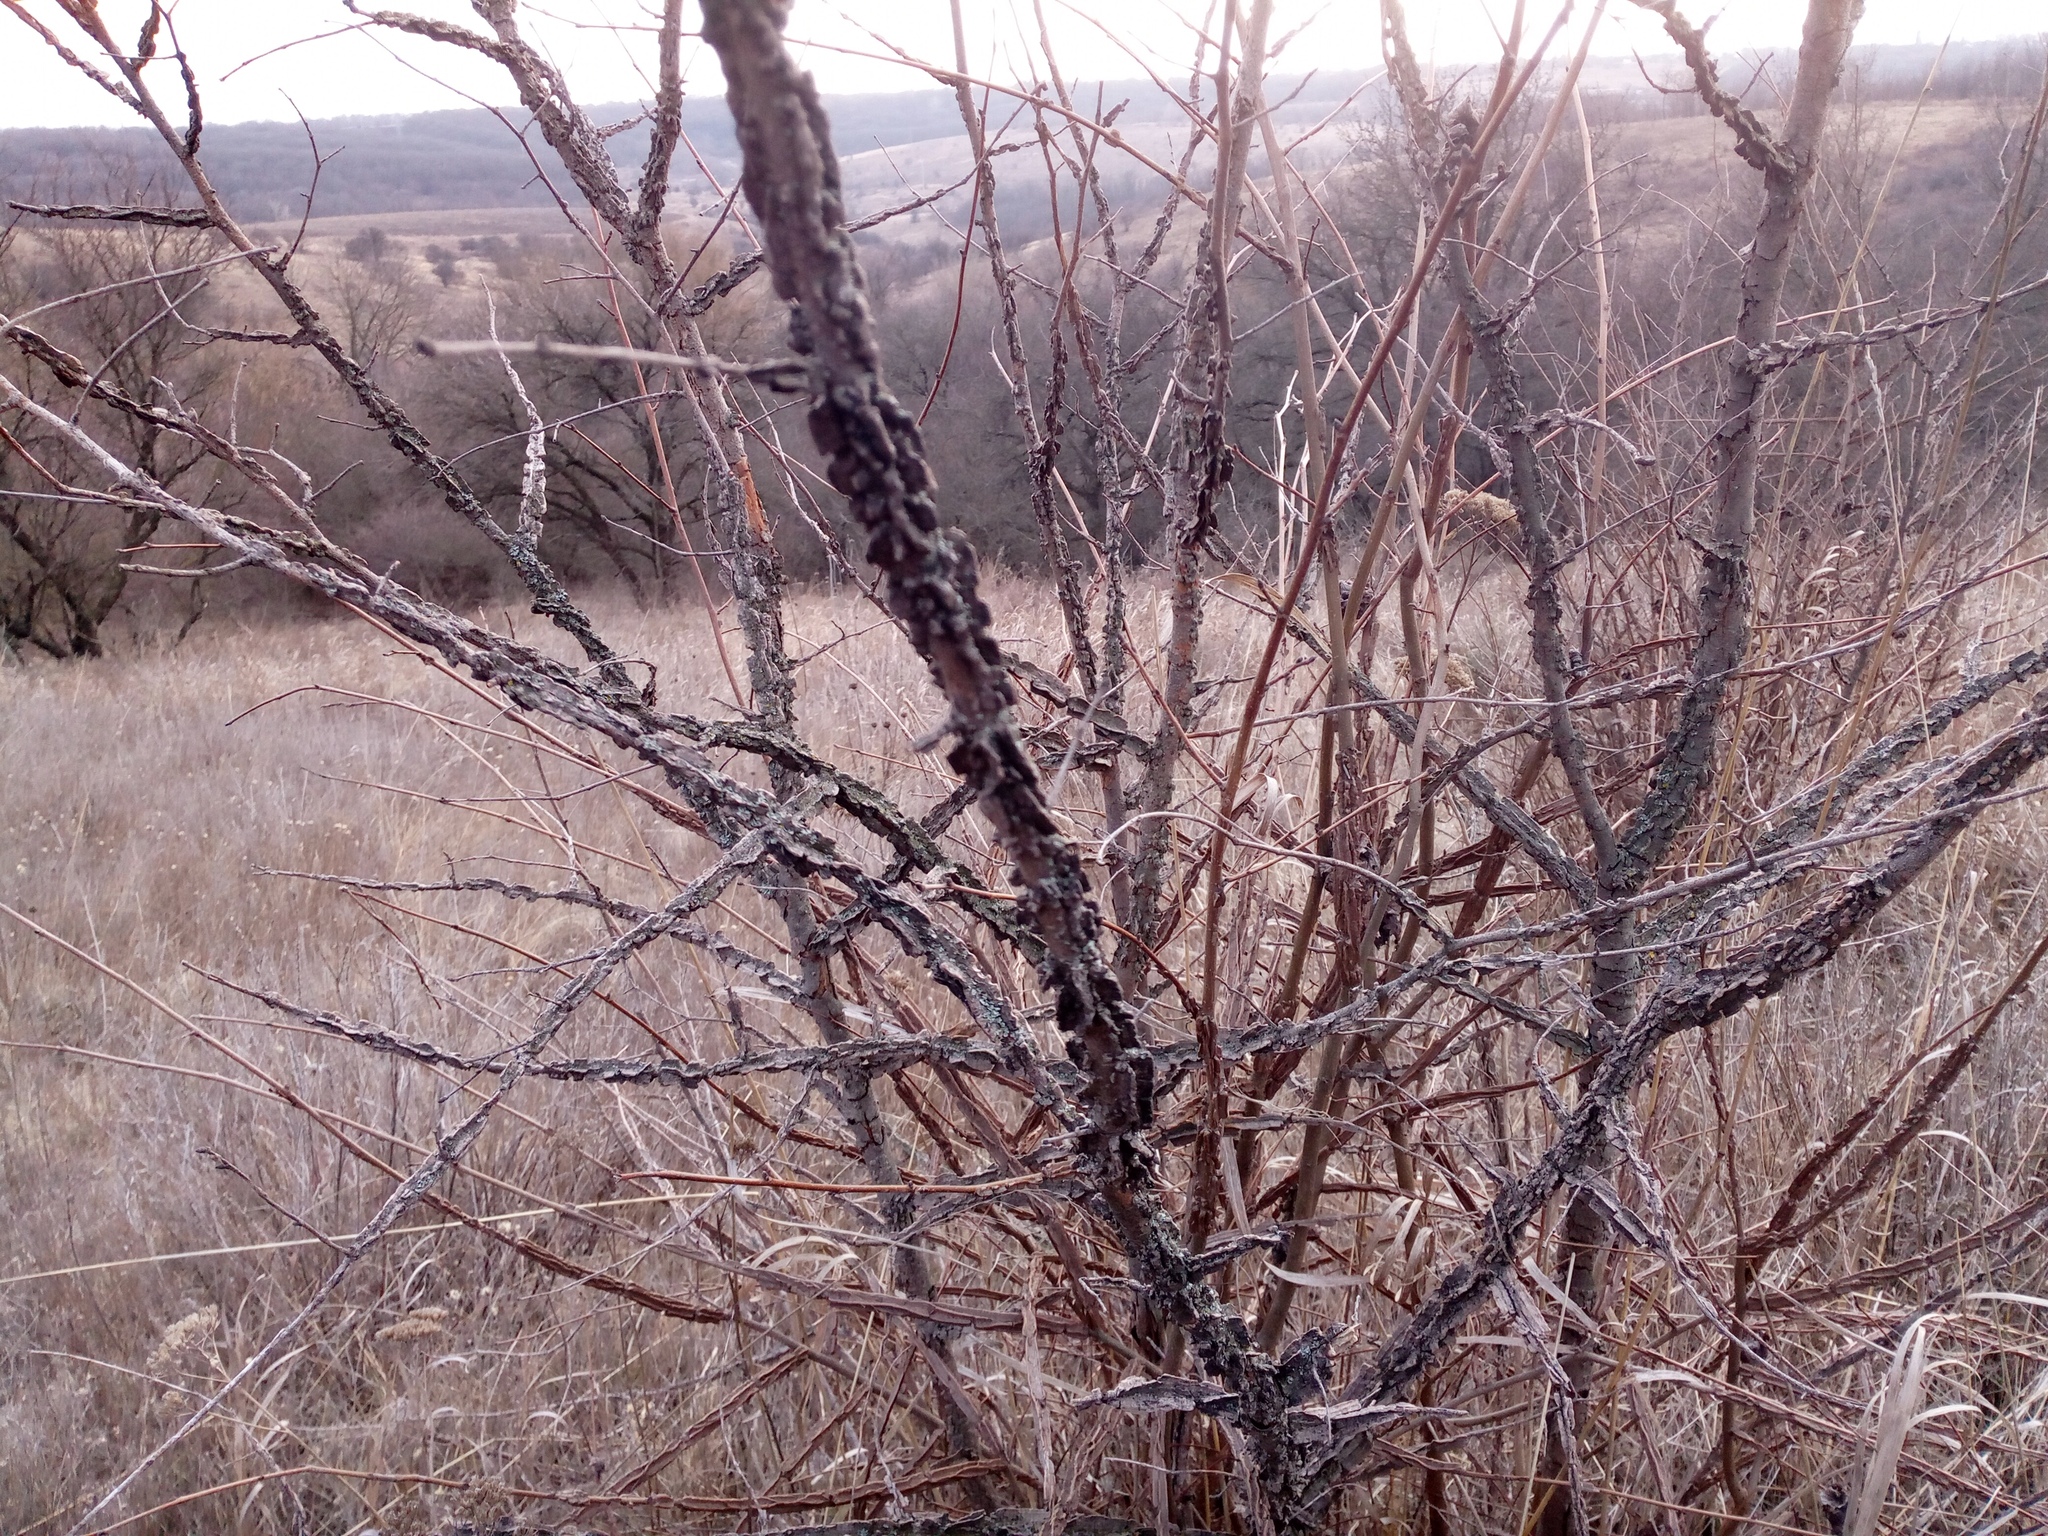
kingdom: Plantae
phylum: Tracheophyta
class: Magnoliopsida
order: Rosales
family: Ulmaceae
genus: Ulmus
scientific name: Ulmus minor
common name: Small-leaved elm
